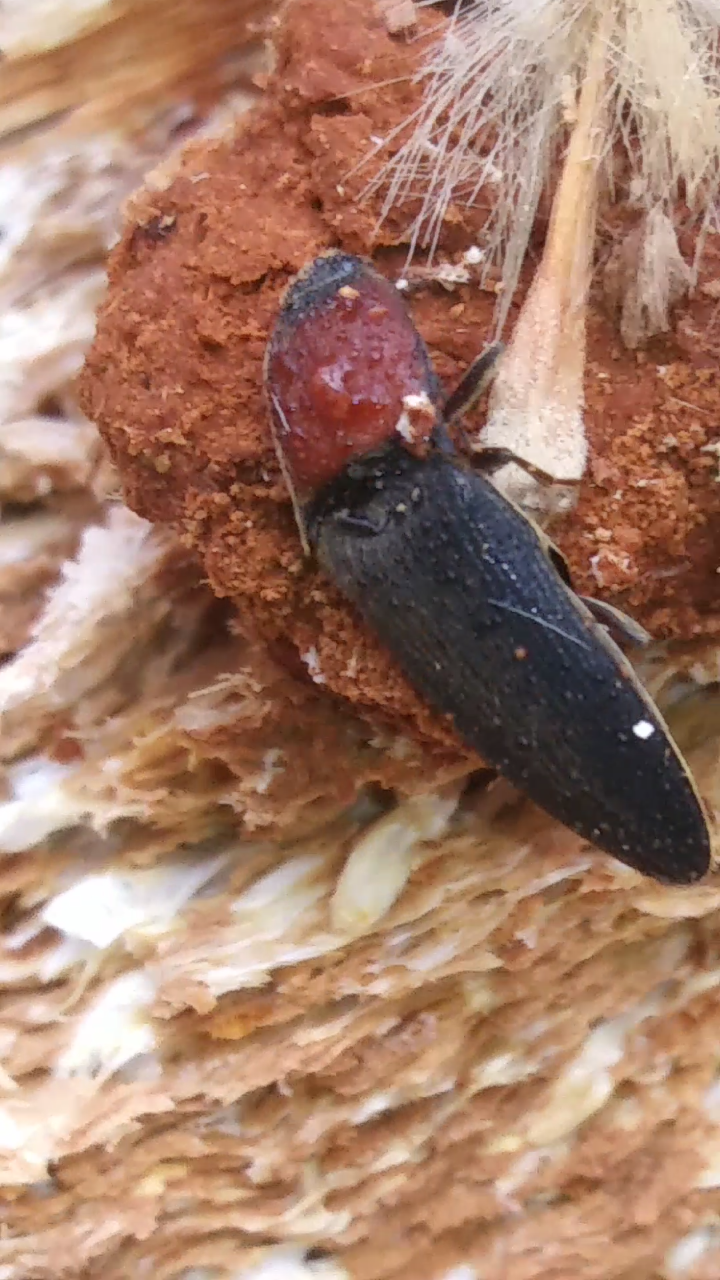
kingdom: Animalia
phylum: Arthropoda
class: Insecta
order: Coleoptera
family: Elateridae
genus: Ampedus
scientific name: Ampedus rubricollis
